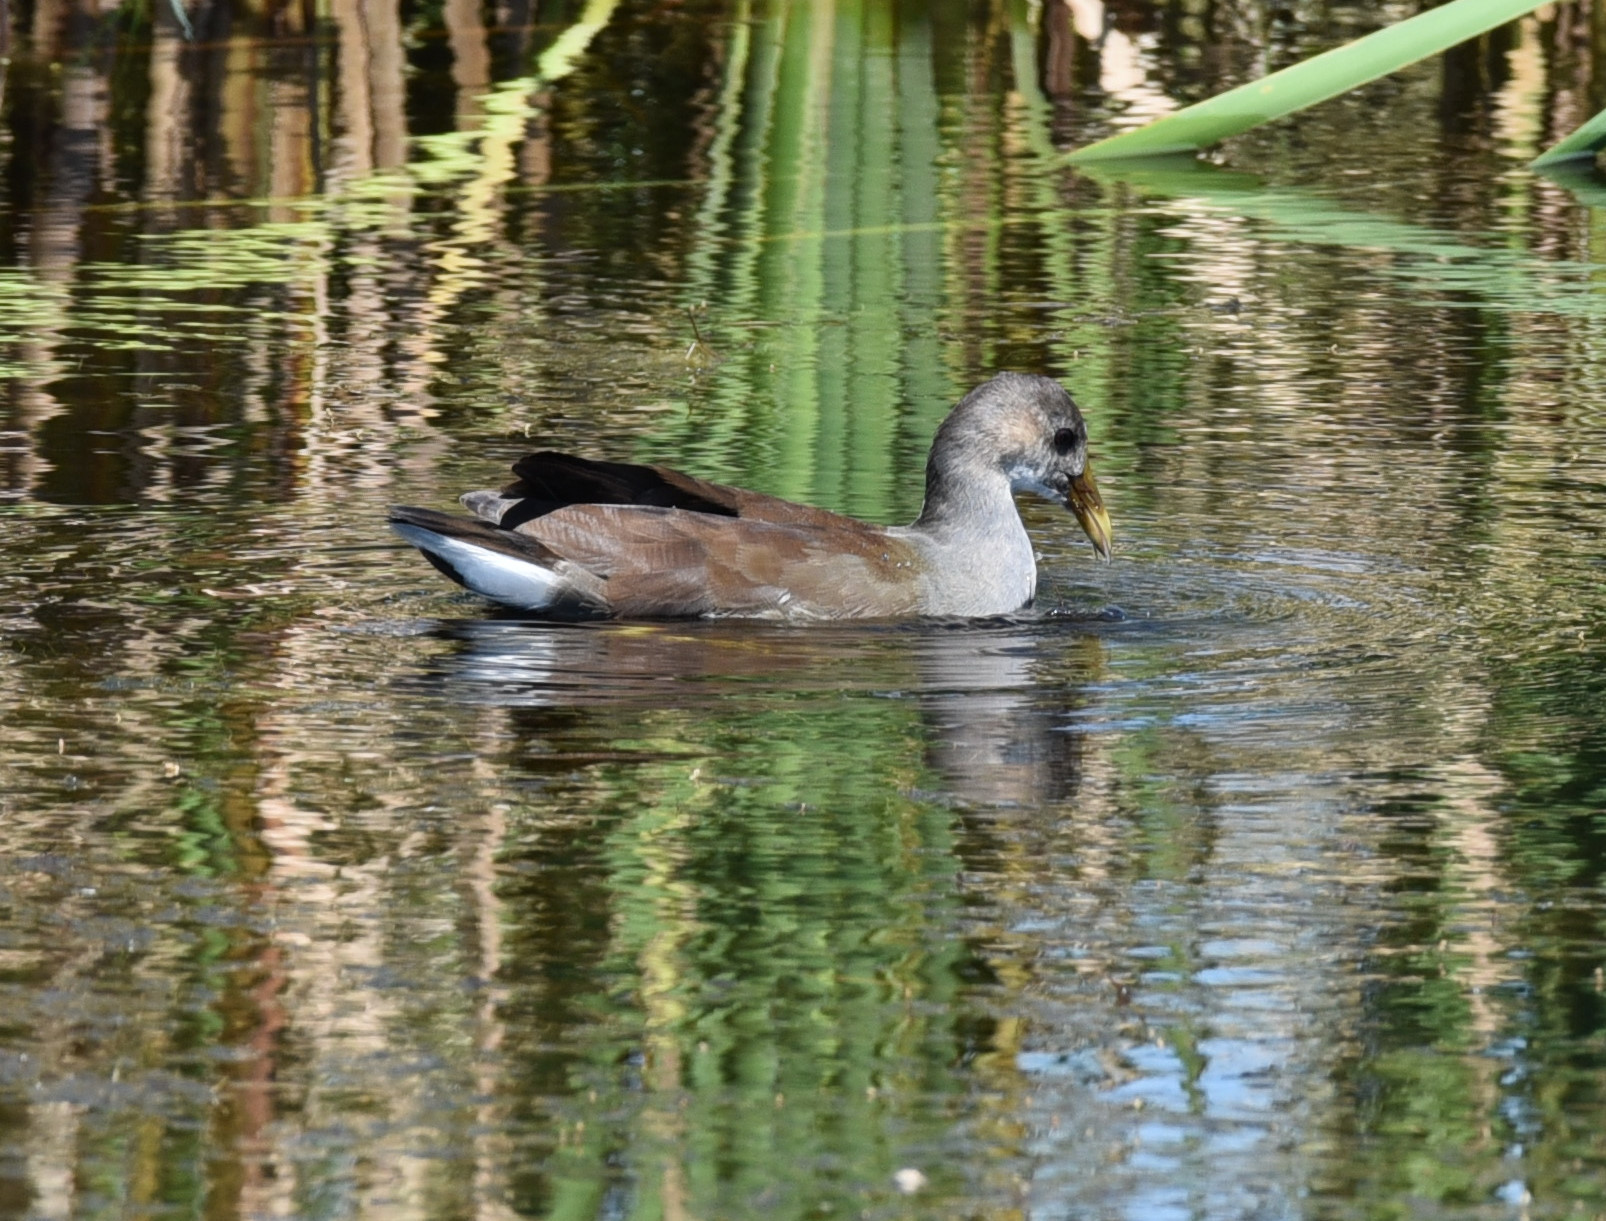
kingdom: Animalia
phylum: Chordata
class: Aves
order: Gruiformes
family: Rallidae
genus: Gallinula
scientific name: Gallinula chloropus
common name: Common moorhen
